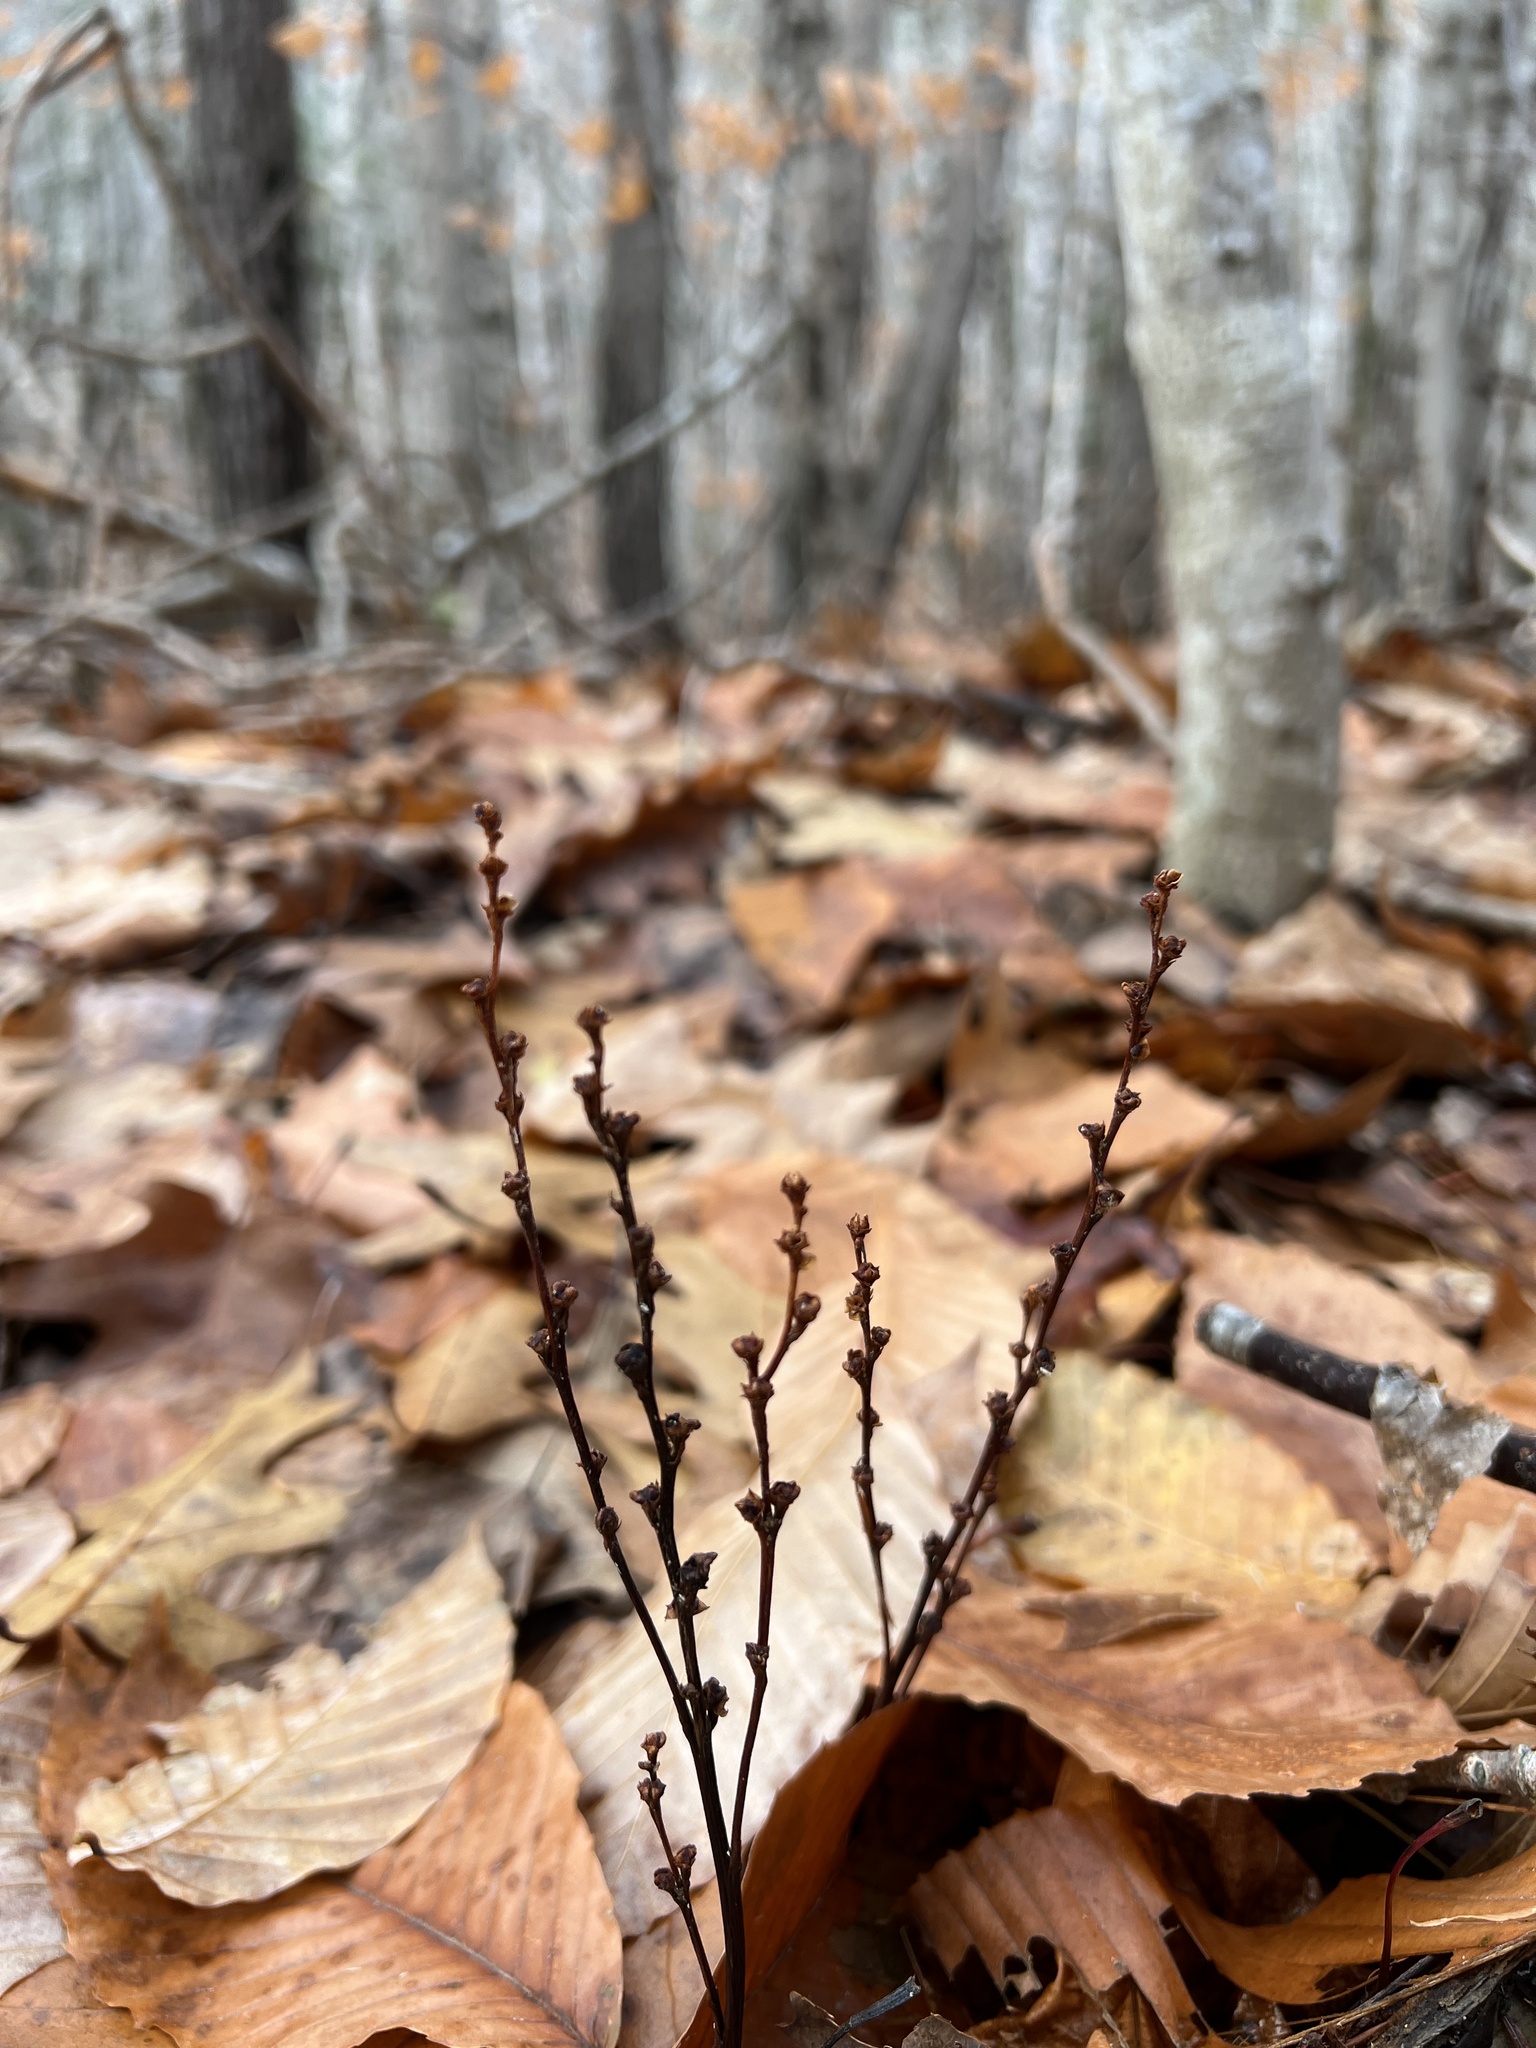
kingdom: Plantae
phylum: Tracheophyta
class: Magnoliopsida
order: Lamiales
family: Orobanchaceae
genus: Epifagus
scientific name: Epifagus virginiana
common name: Beechdrops
